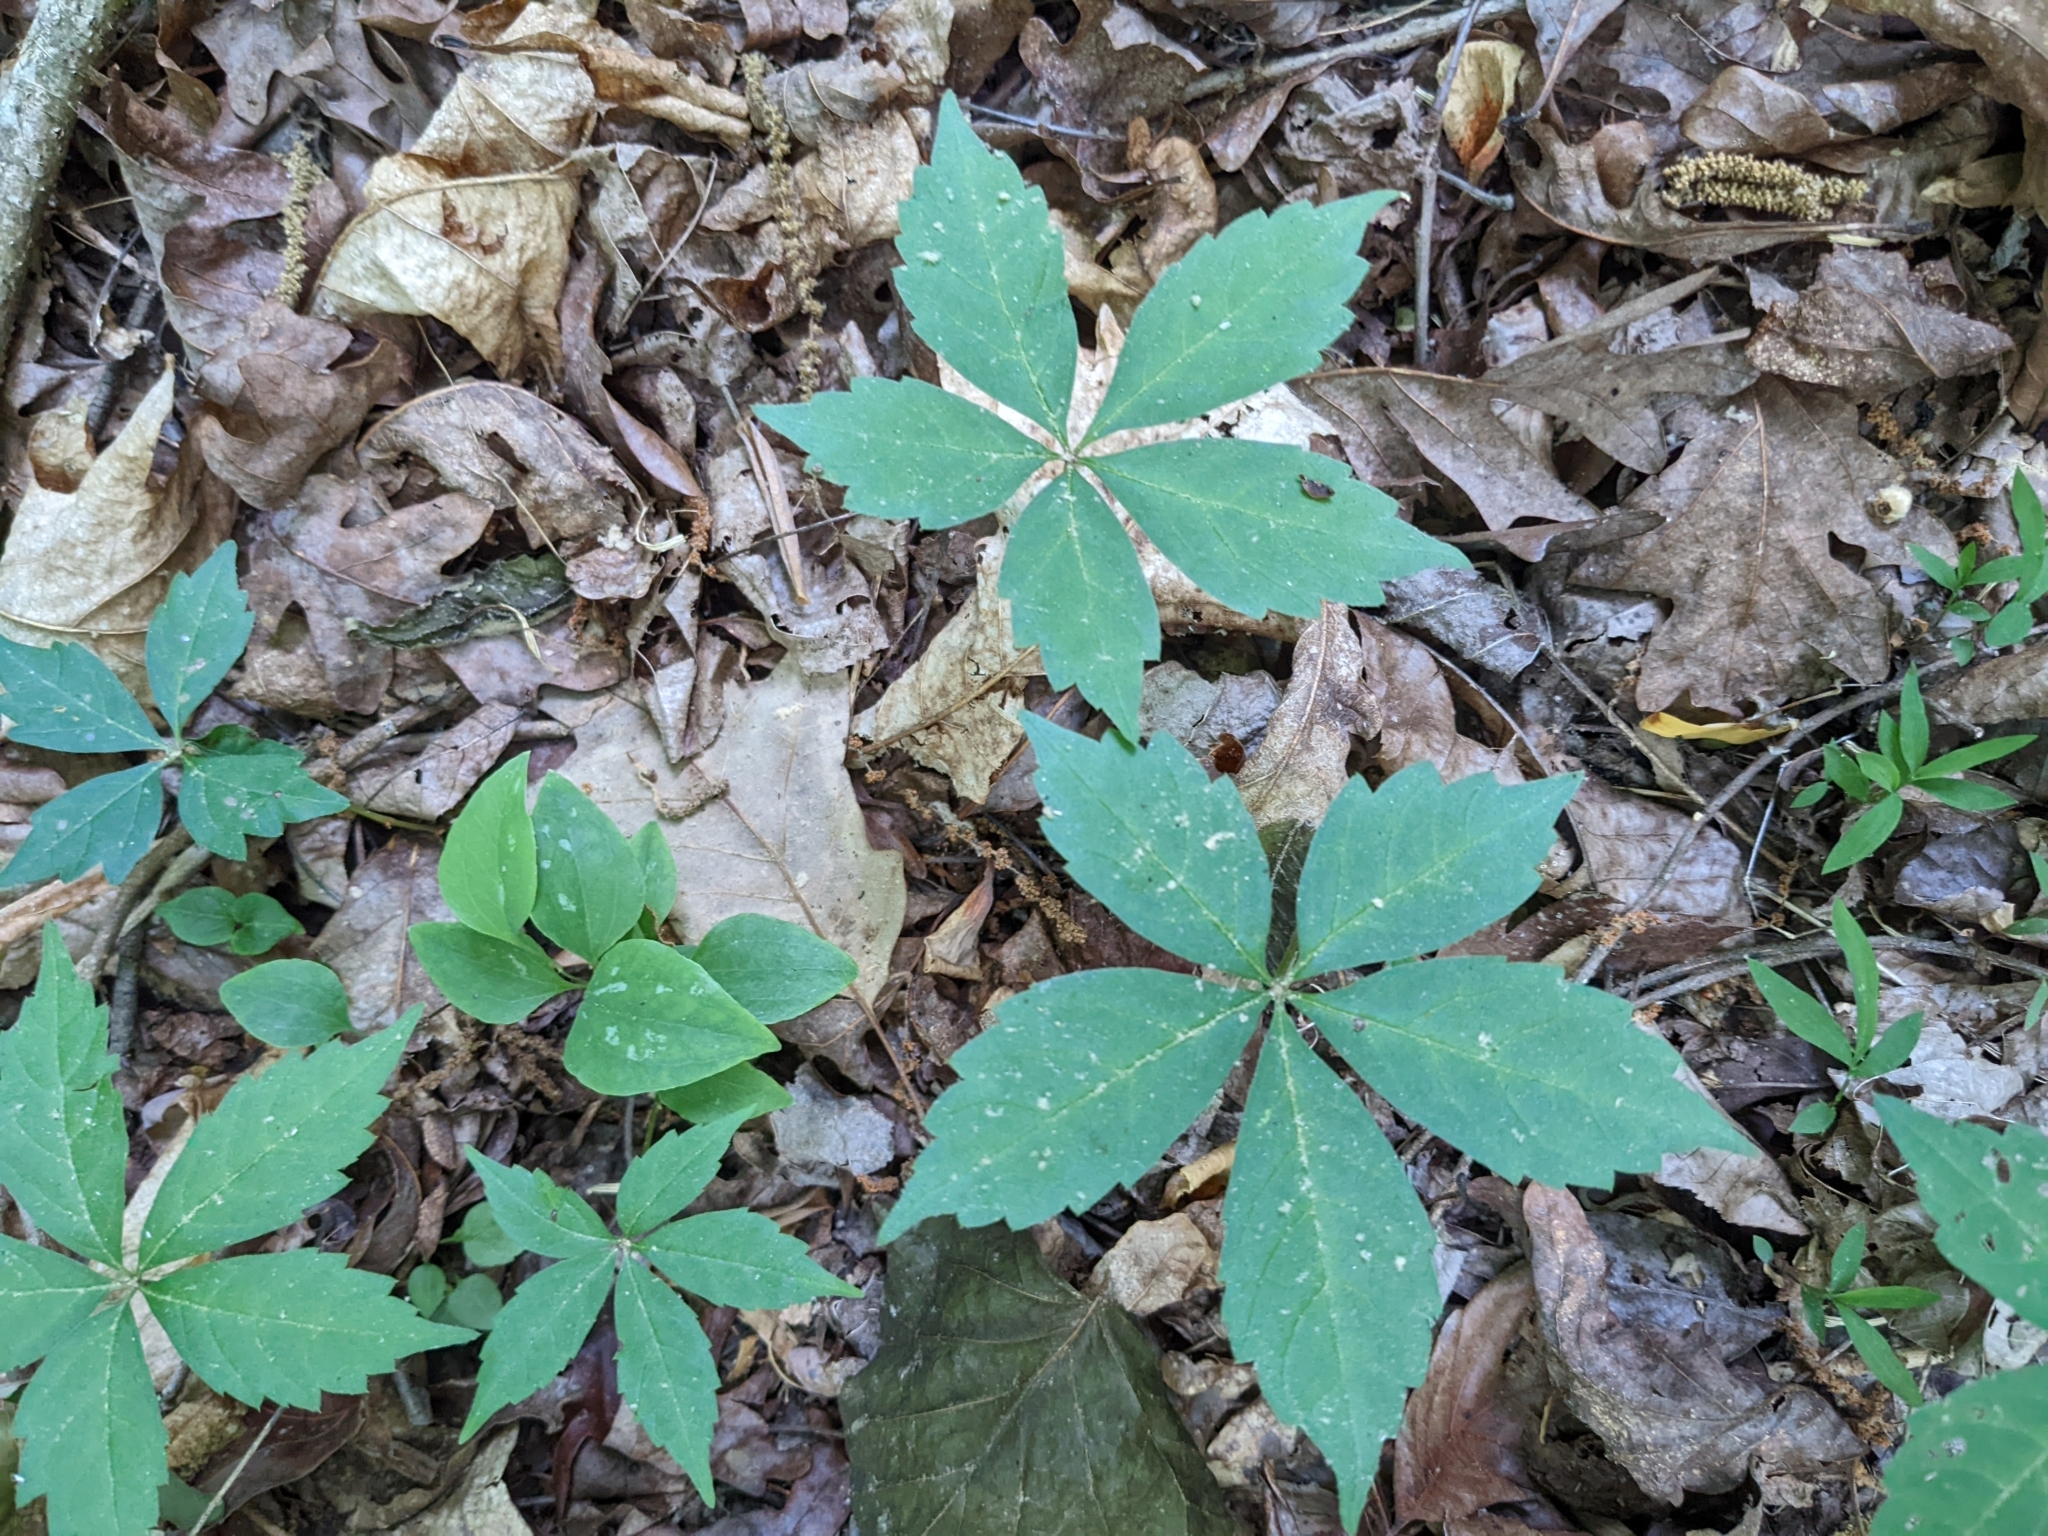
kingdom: Plantae
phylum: Tracheophyta
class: Magnoliopsida
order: Vitales
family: Vitaceae
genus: Parthenocissus
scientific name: Parthenocissus quinquefolia
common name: Virginia-creeper
